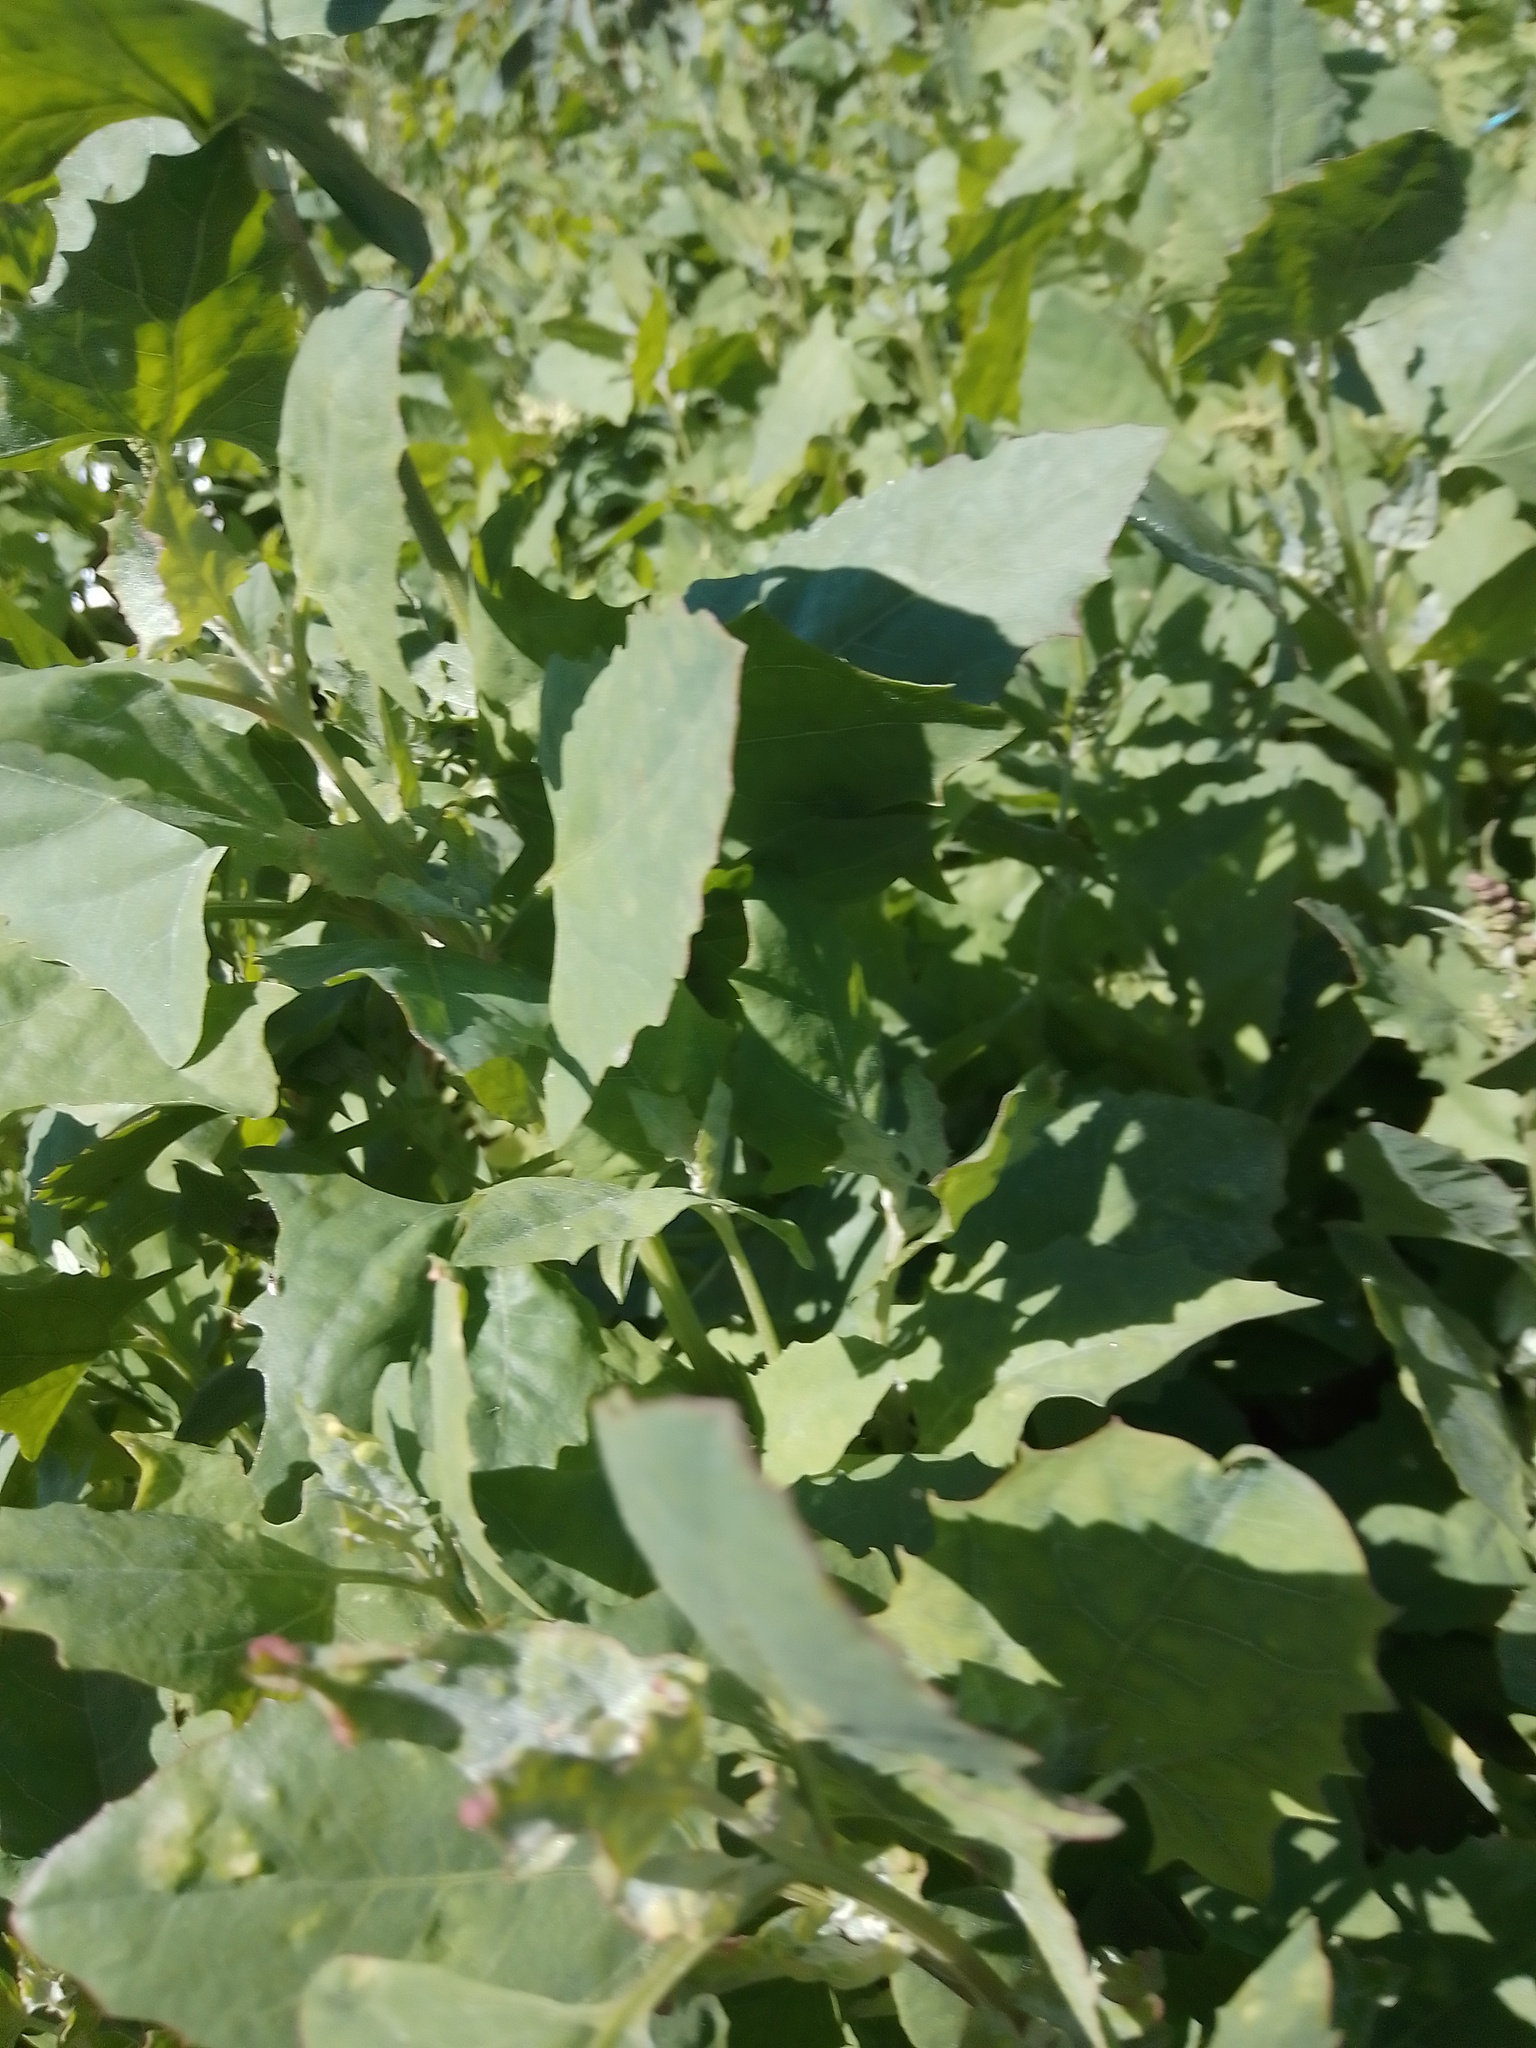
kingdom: Plantae
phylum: Tracheophyta
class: Magnoliopsida
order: Caryophyllales
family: Amaranthaceae
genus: Chenopodium
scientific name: Chenopodium album
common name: Fat-hen
